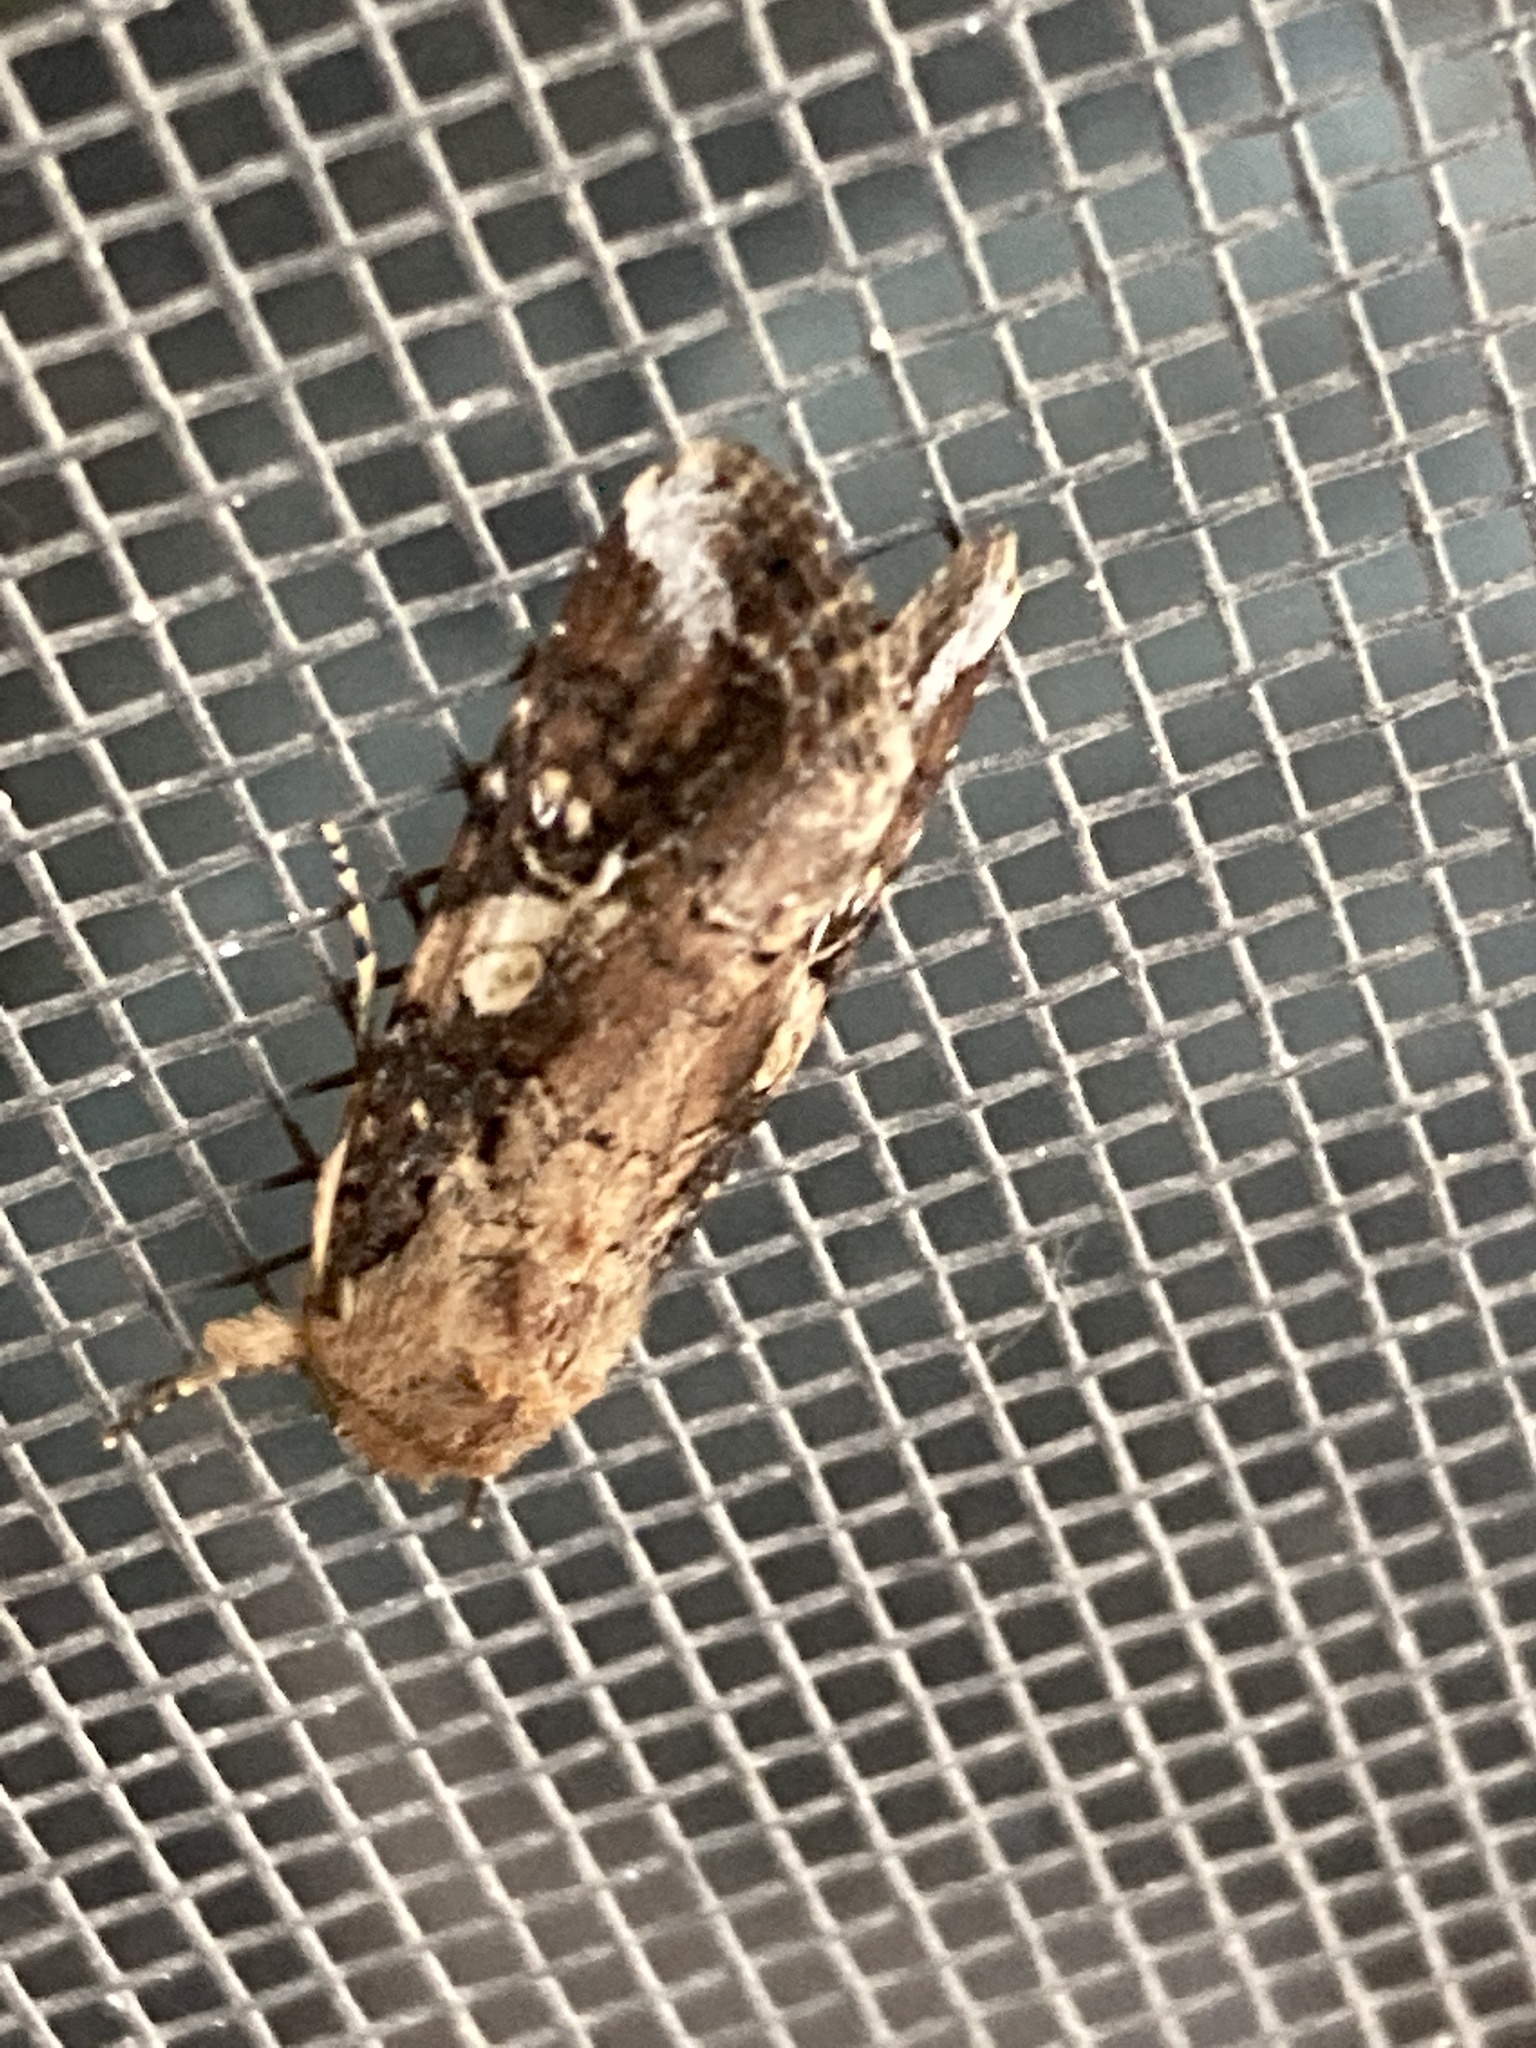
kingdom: Animalia
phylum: Arthropoda
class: Insecta
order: Lepidoptera
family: Noctuidae
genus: Spodoptera
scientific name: Spodoptera frugiperda
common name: Fall armyworm
